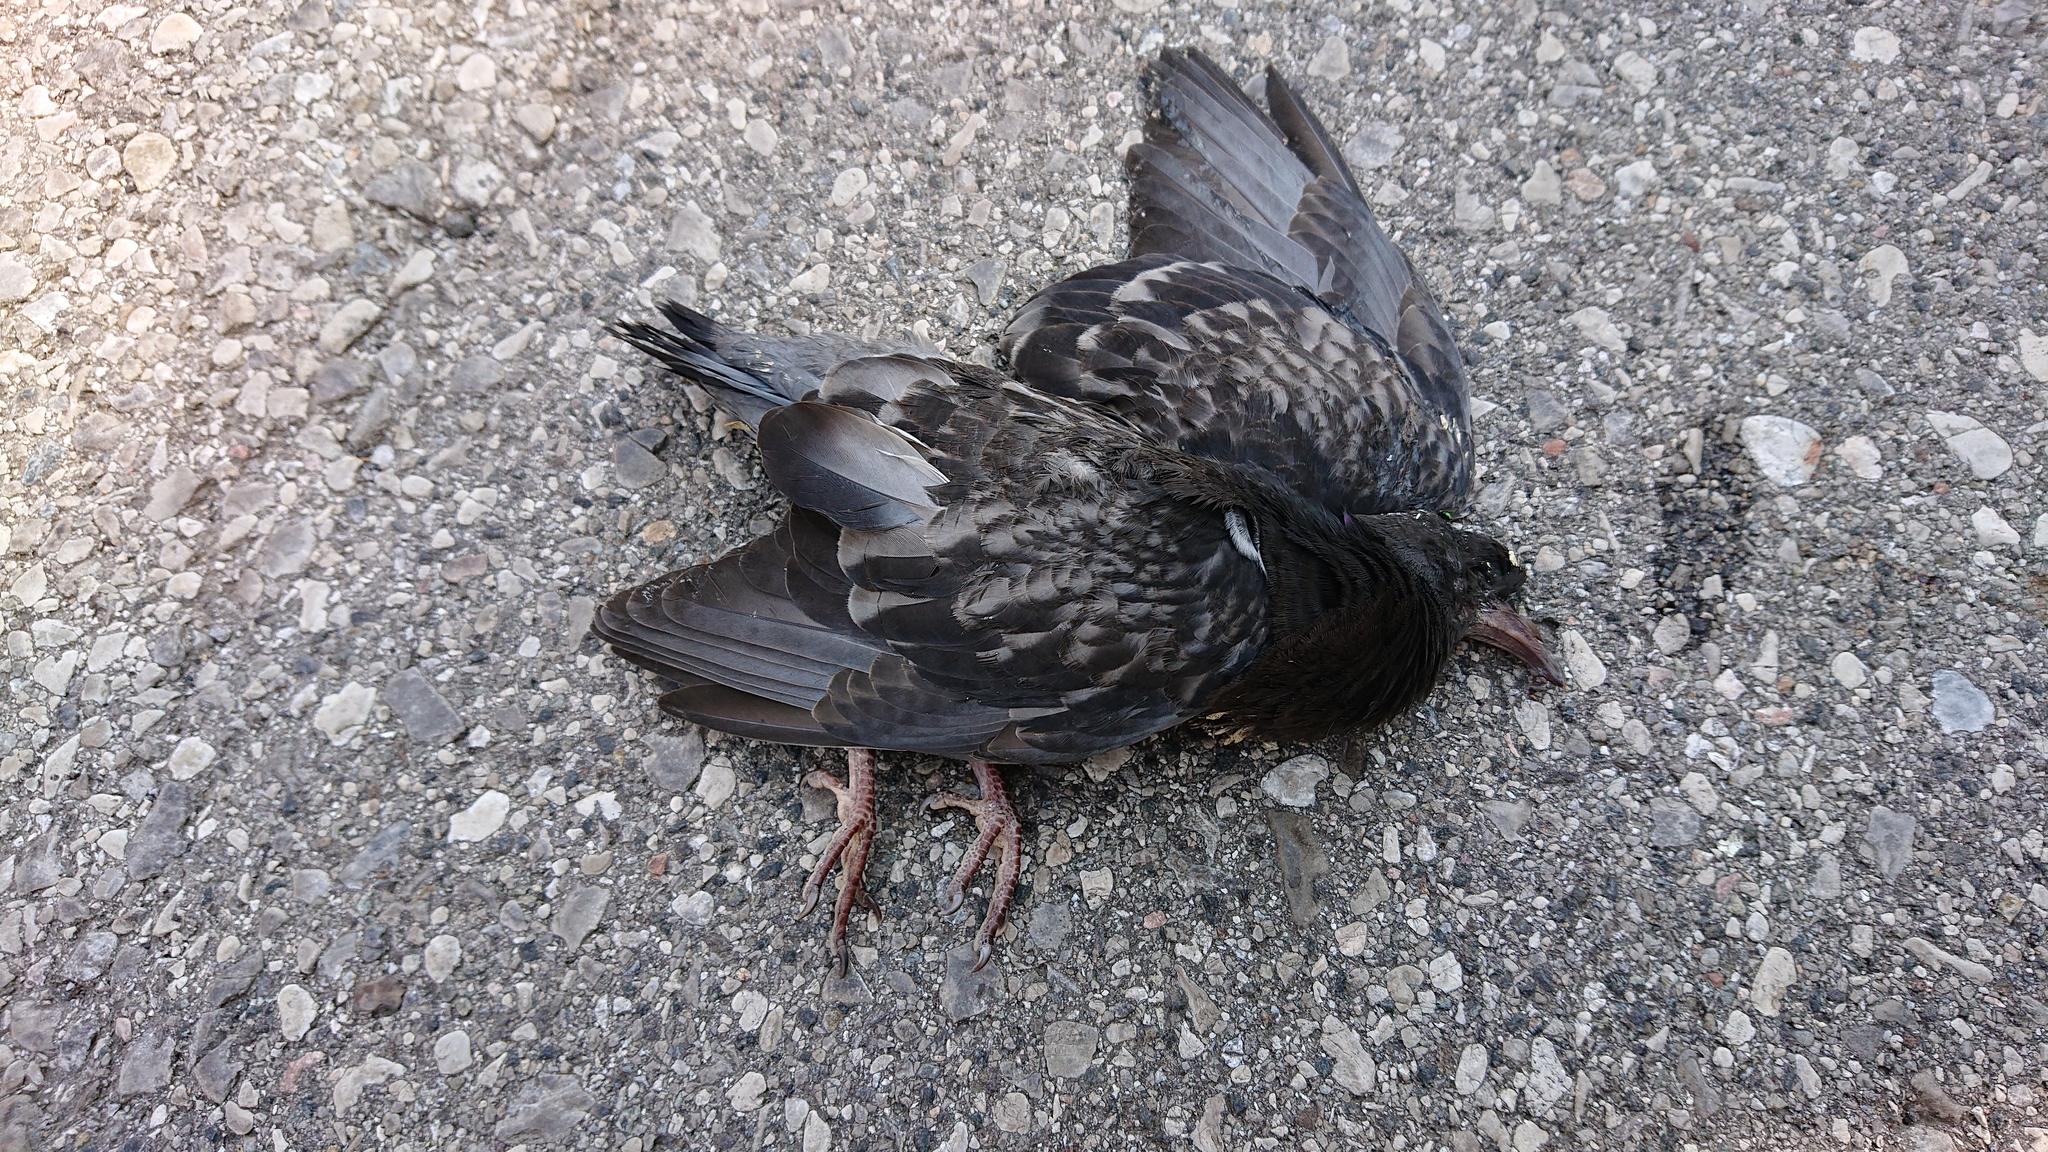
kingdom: Animalia
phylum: Chordata
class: Aves
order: Columbiformes
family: Columbidae
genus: Columba
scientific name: Columba livia
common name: Rock pigeon
